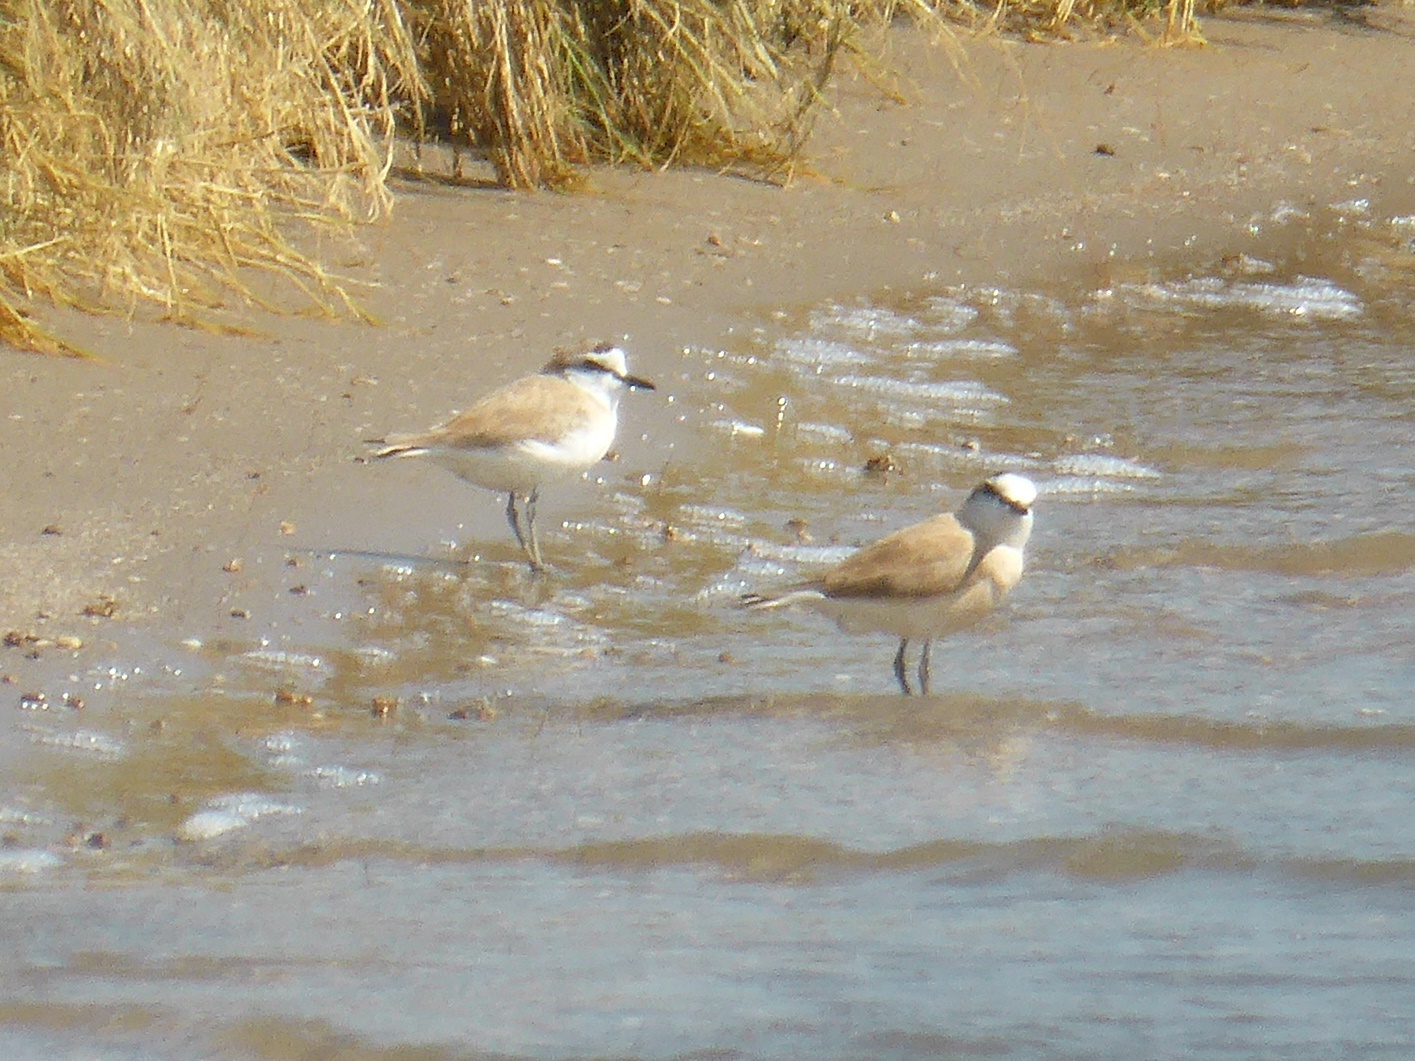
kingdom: Animalia
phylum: Chordata
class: Aves
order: Charadriiformes
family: Charadriidae
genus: Anarhynchus
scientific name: Anarhynchus
